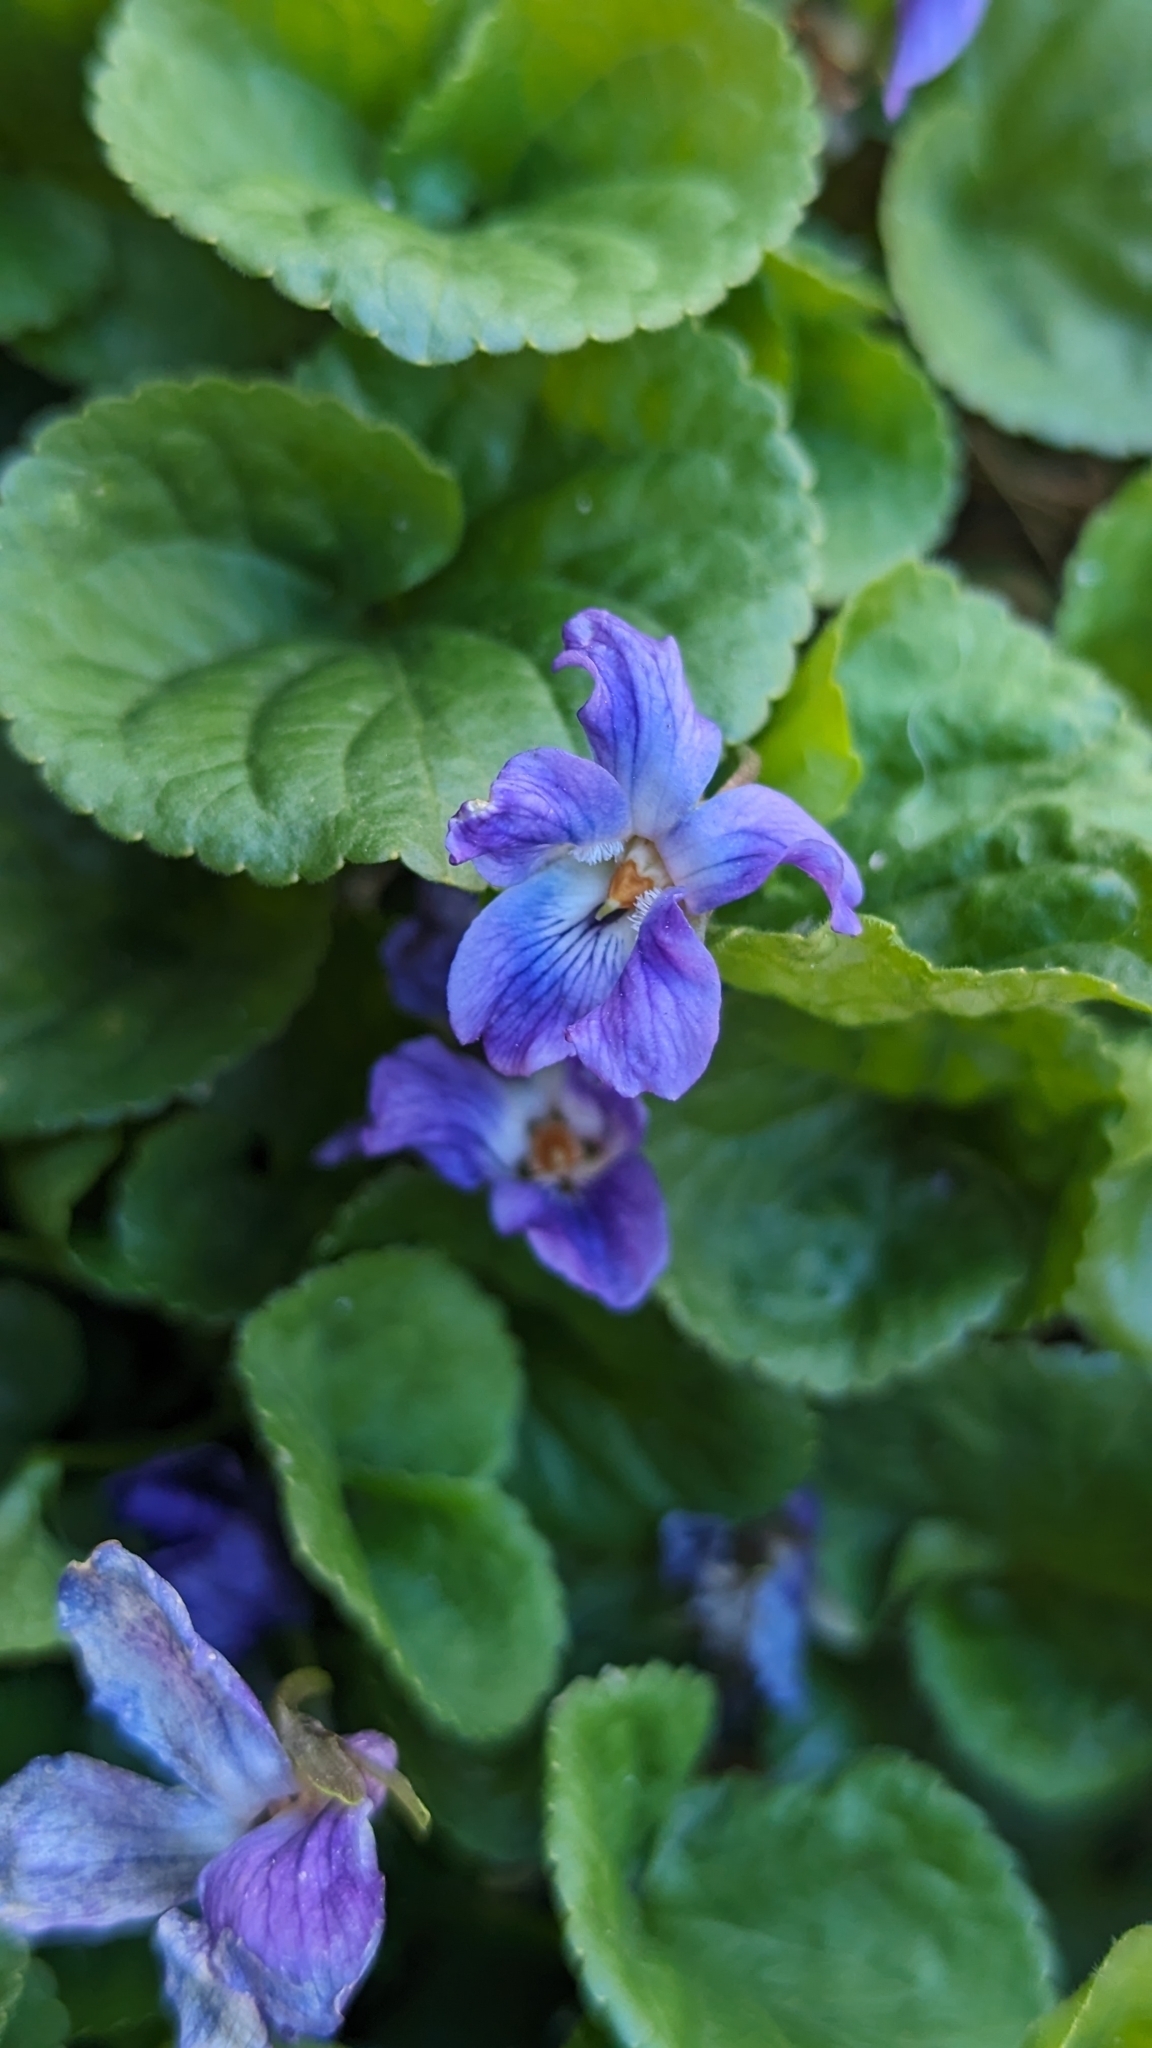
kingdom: Plantae
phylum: Tracheophyta
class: Magnoliopsida
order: Malpighiales
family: Violaceae
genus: Viola
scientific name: Viola odorata
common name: Sweet violet
